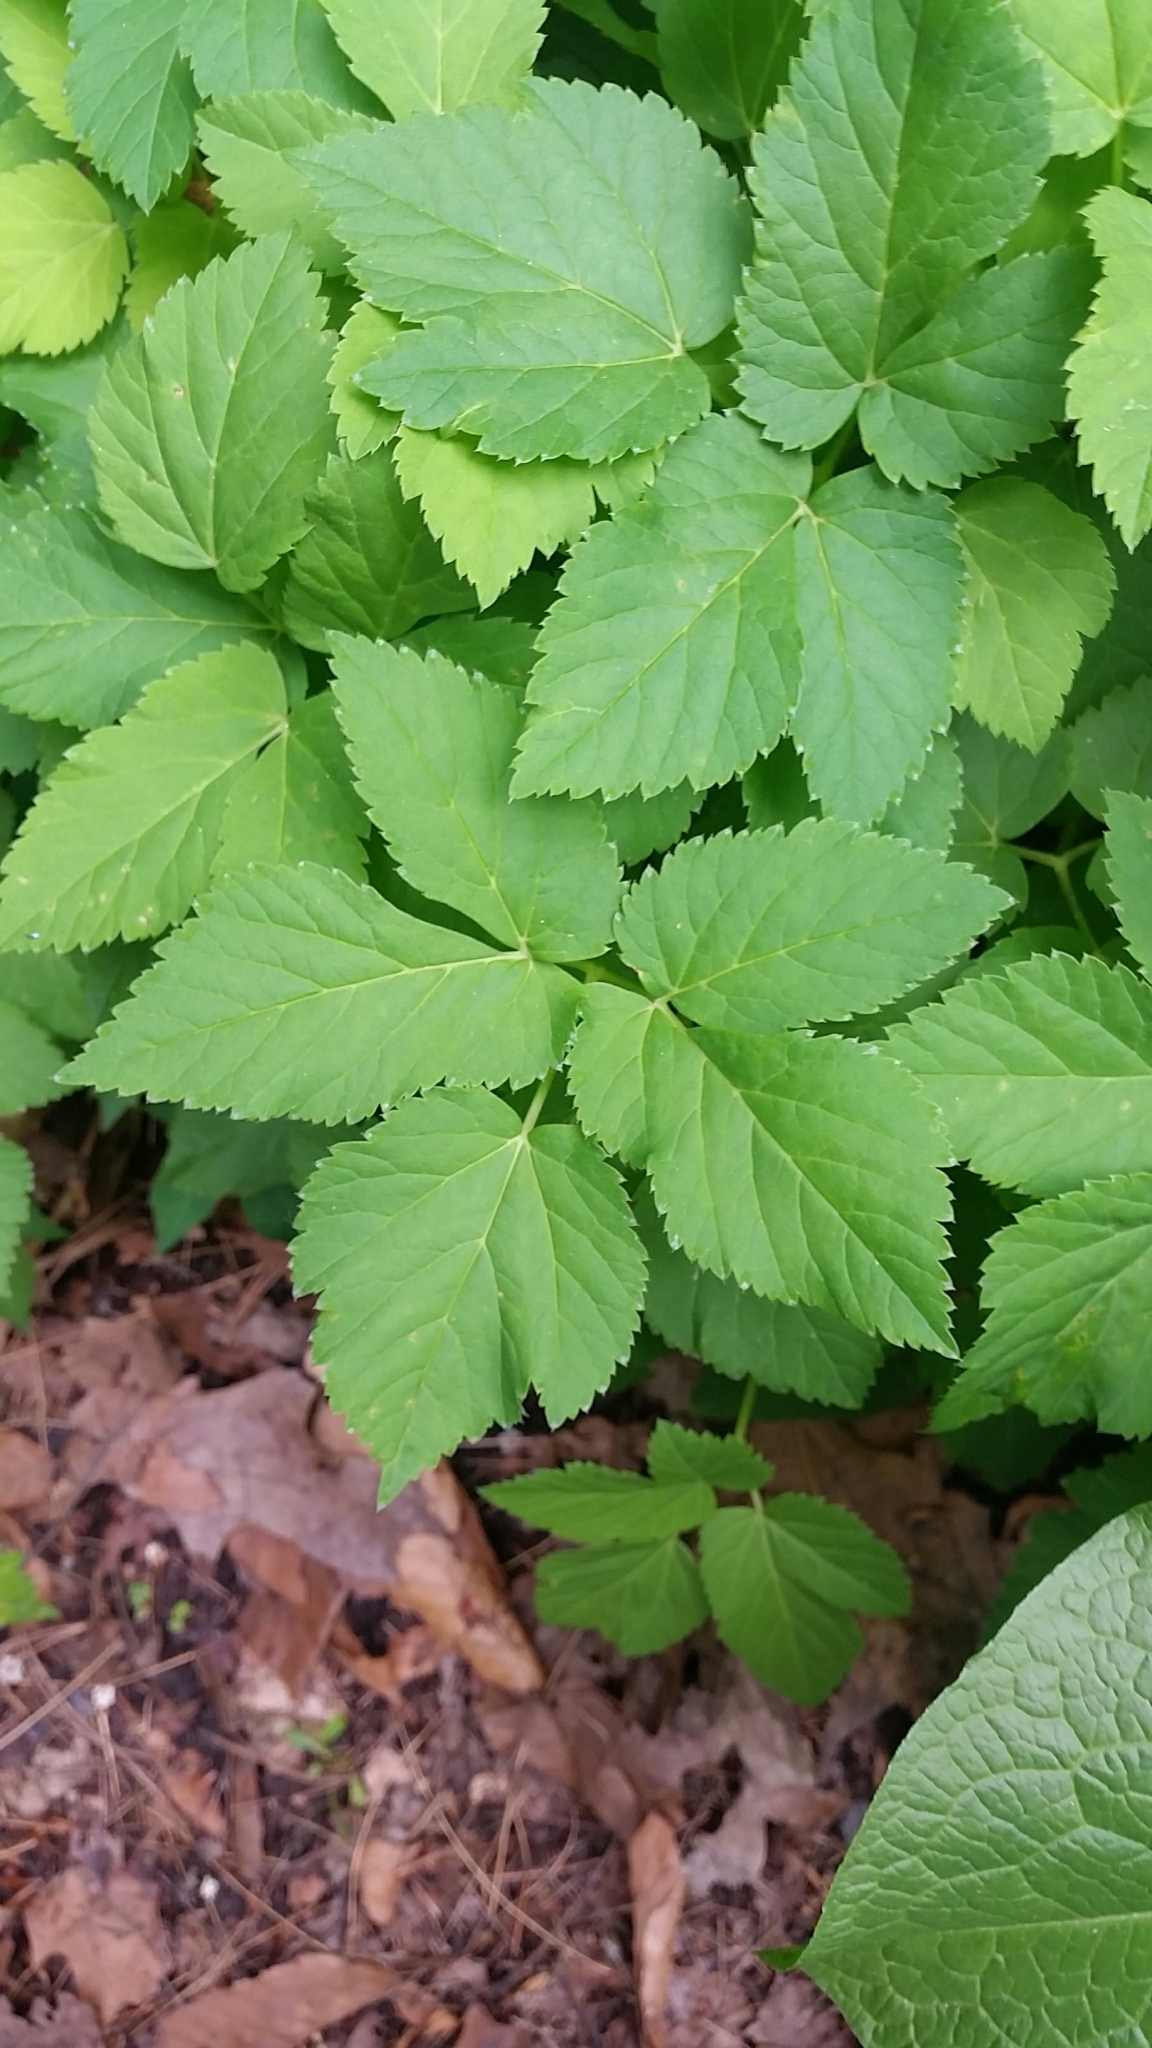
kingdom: Plantae
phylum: Tracheophyta
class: Magnoliopsida
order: Apiales
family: Apiaceae
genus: Aegopodium
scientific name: Aegopodium podagraria
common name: Ground-elder
